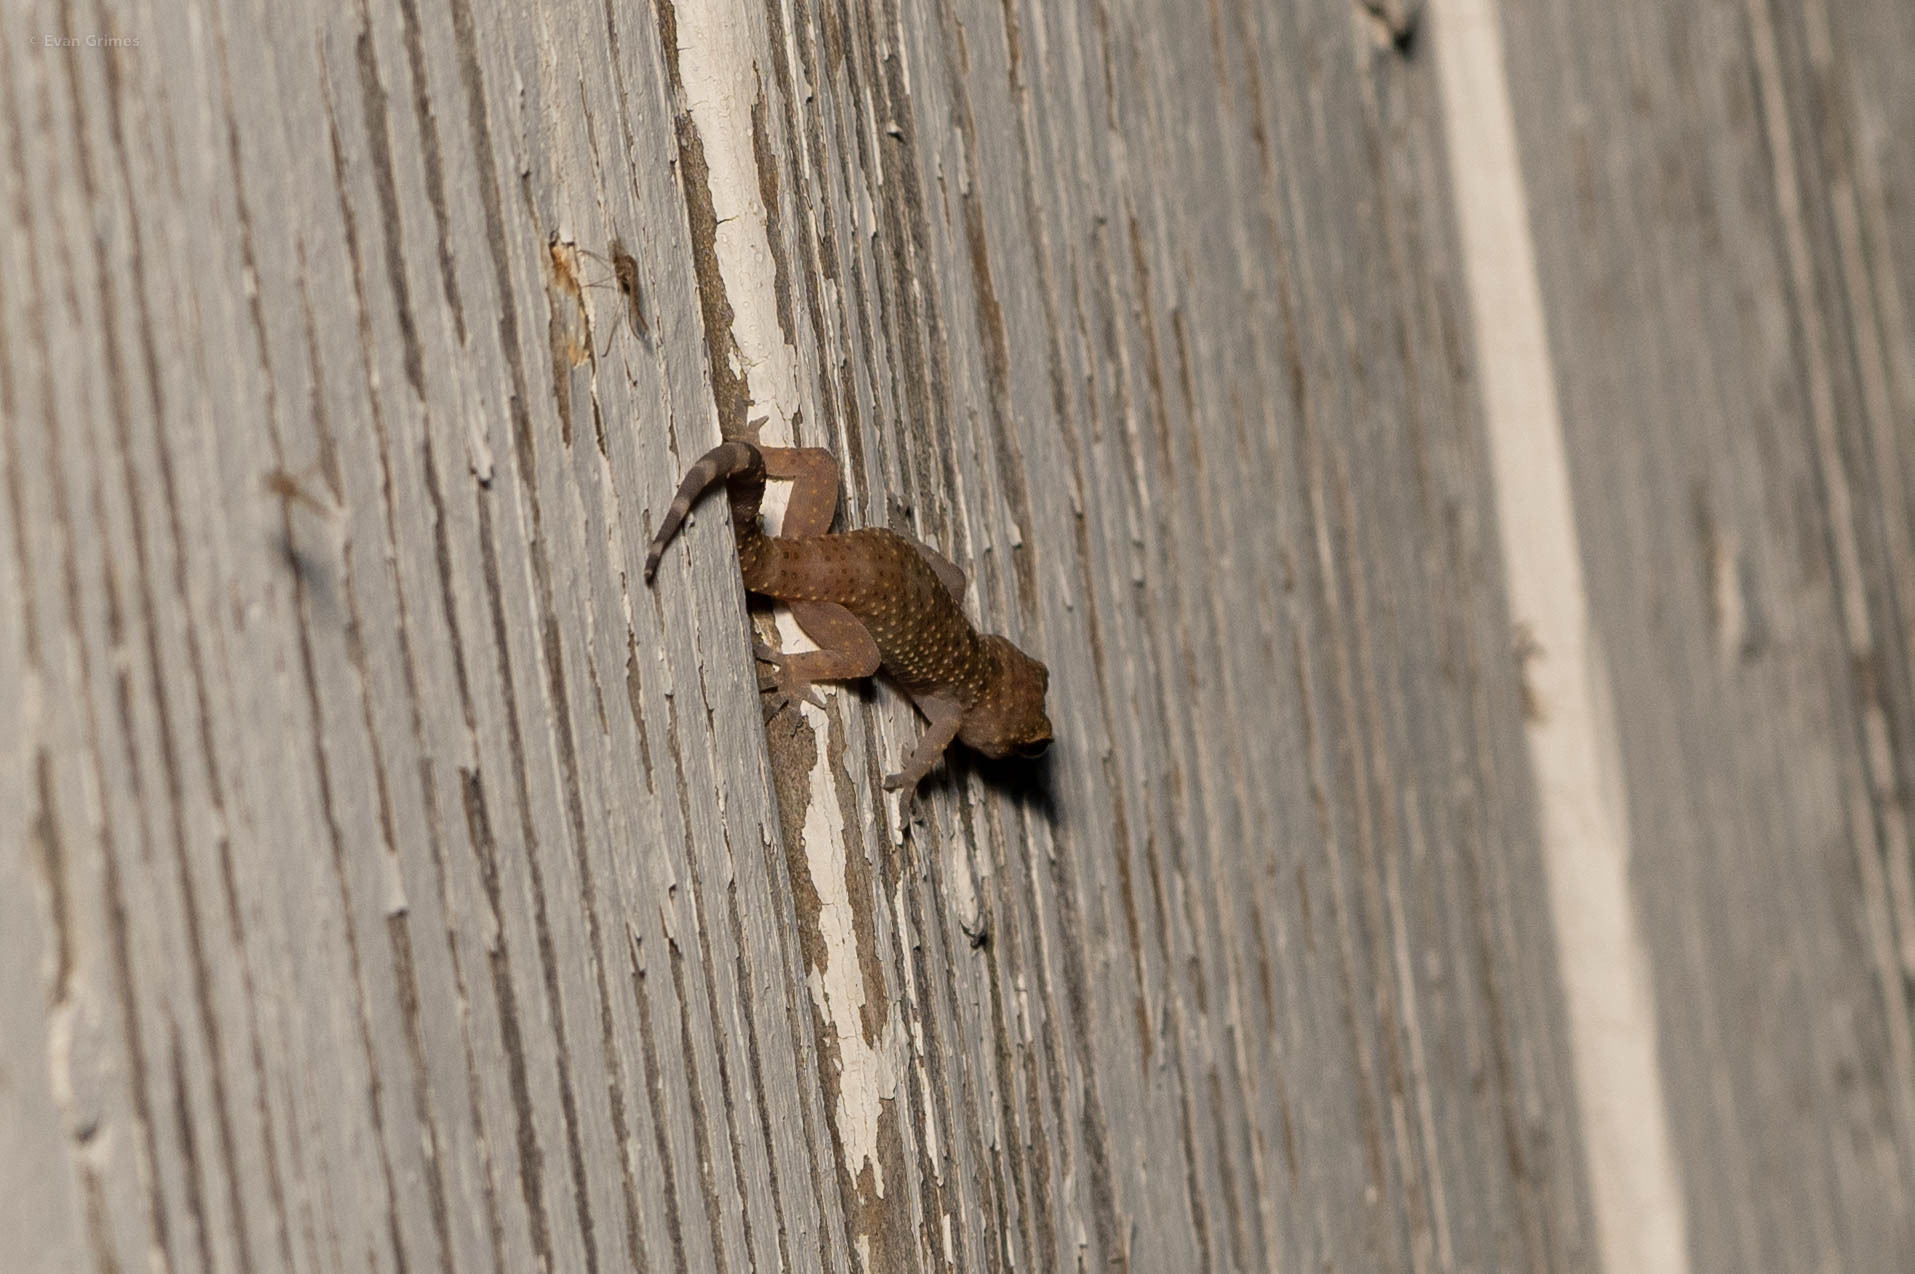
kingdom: Animalia
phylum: Chordata
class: Squamata
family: Gekkonidae
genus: Hemidactylus
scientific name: Hemidactylus turcicus
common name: Turkish gecko
